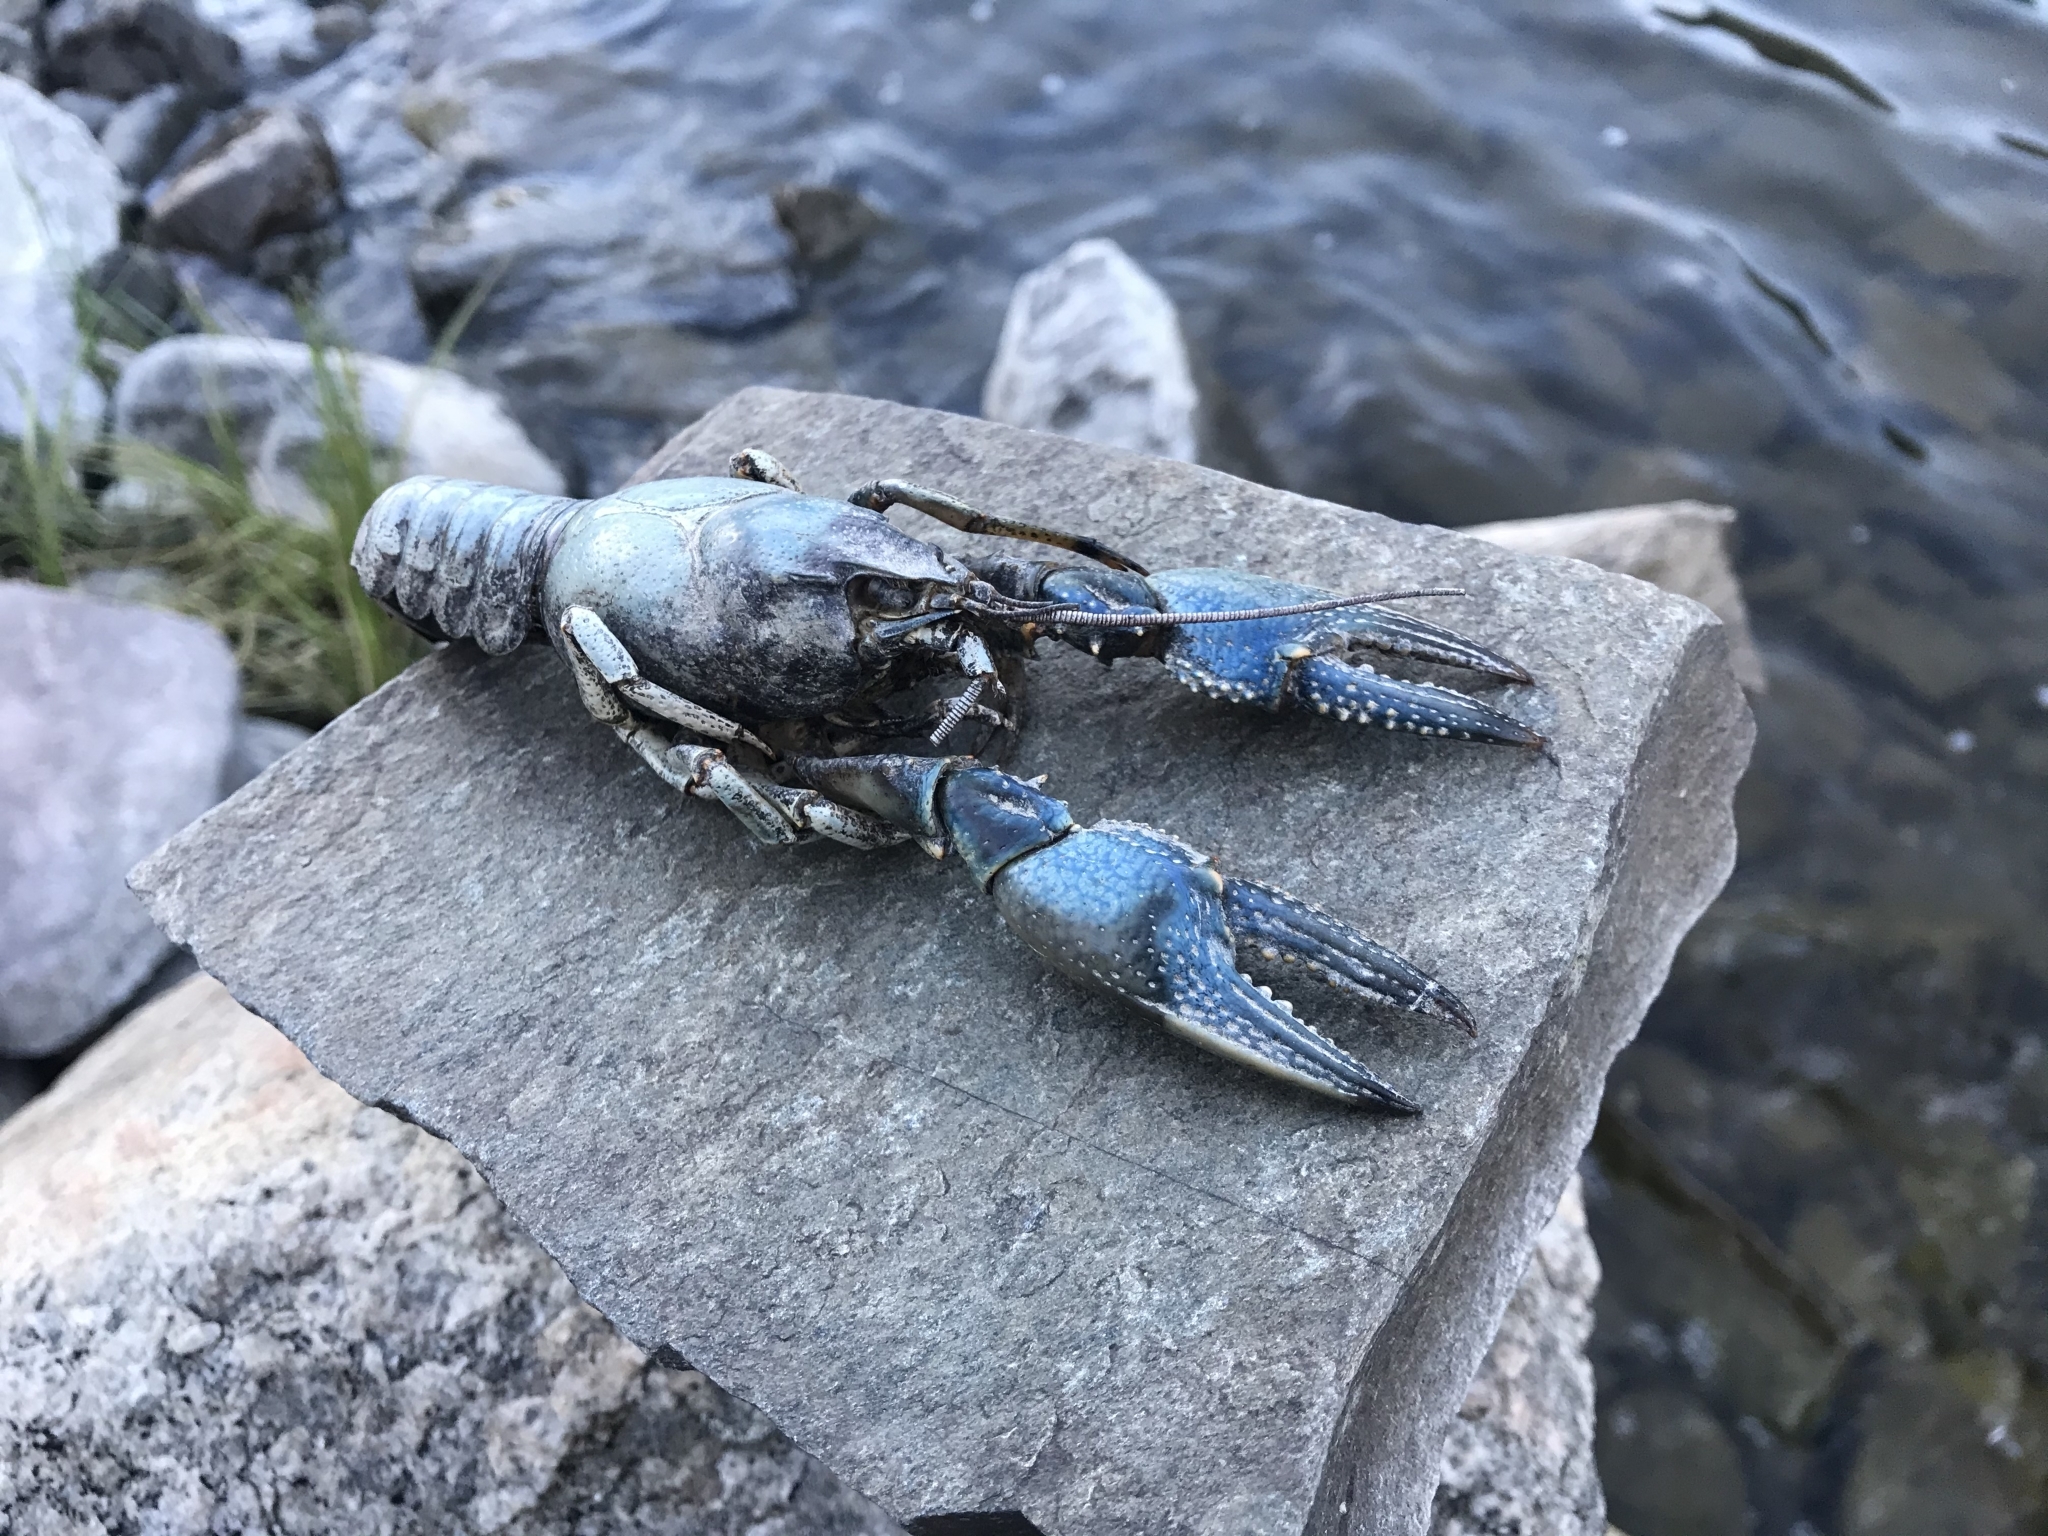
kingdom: Animalia
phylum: Arthropoda
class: Malacostraca
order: Decapoda
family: Cambaridae
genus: Faxonius
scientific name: Faxonius virilis
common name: Virile crayfish
